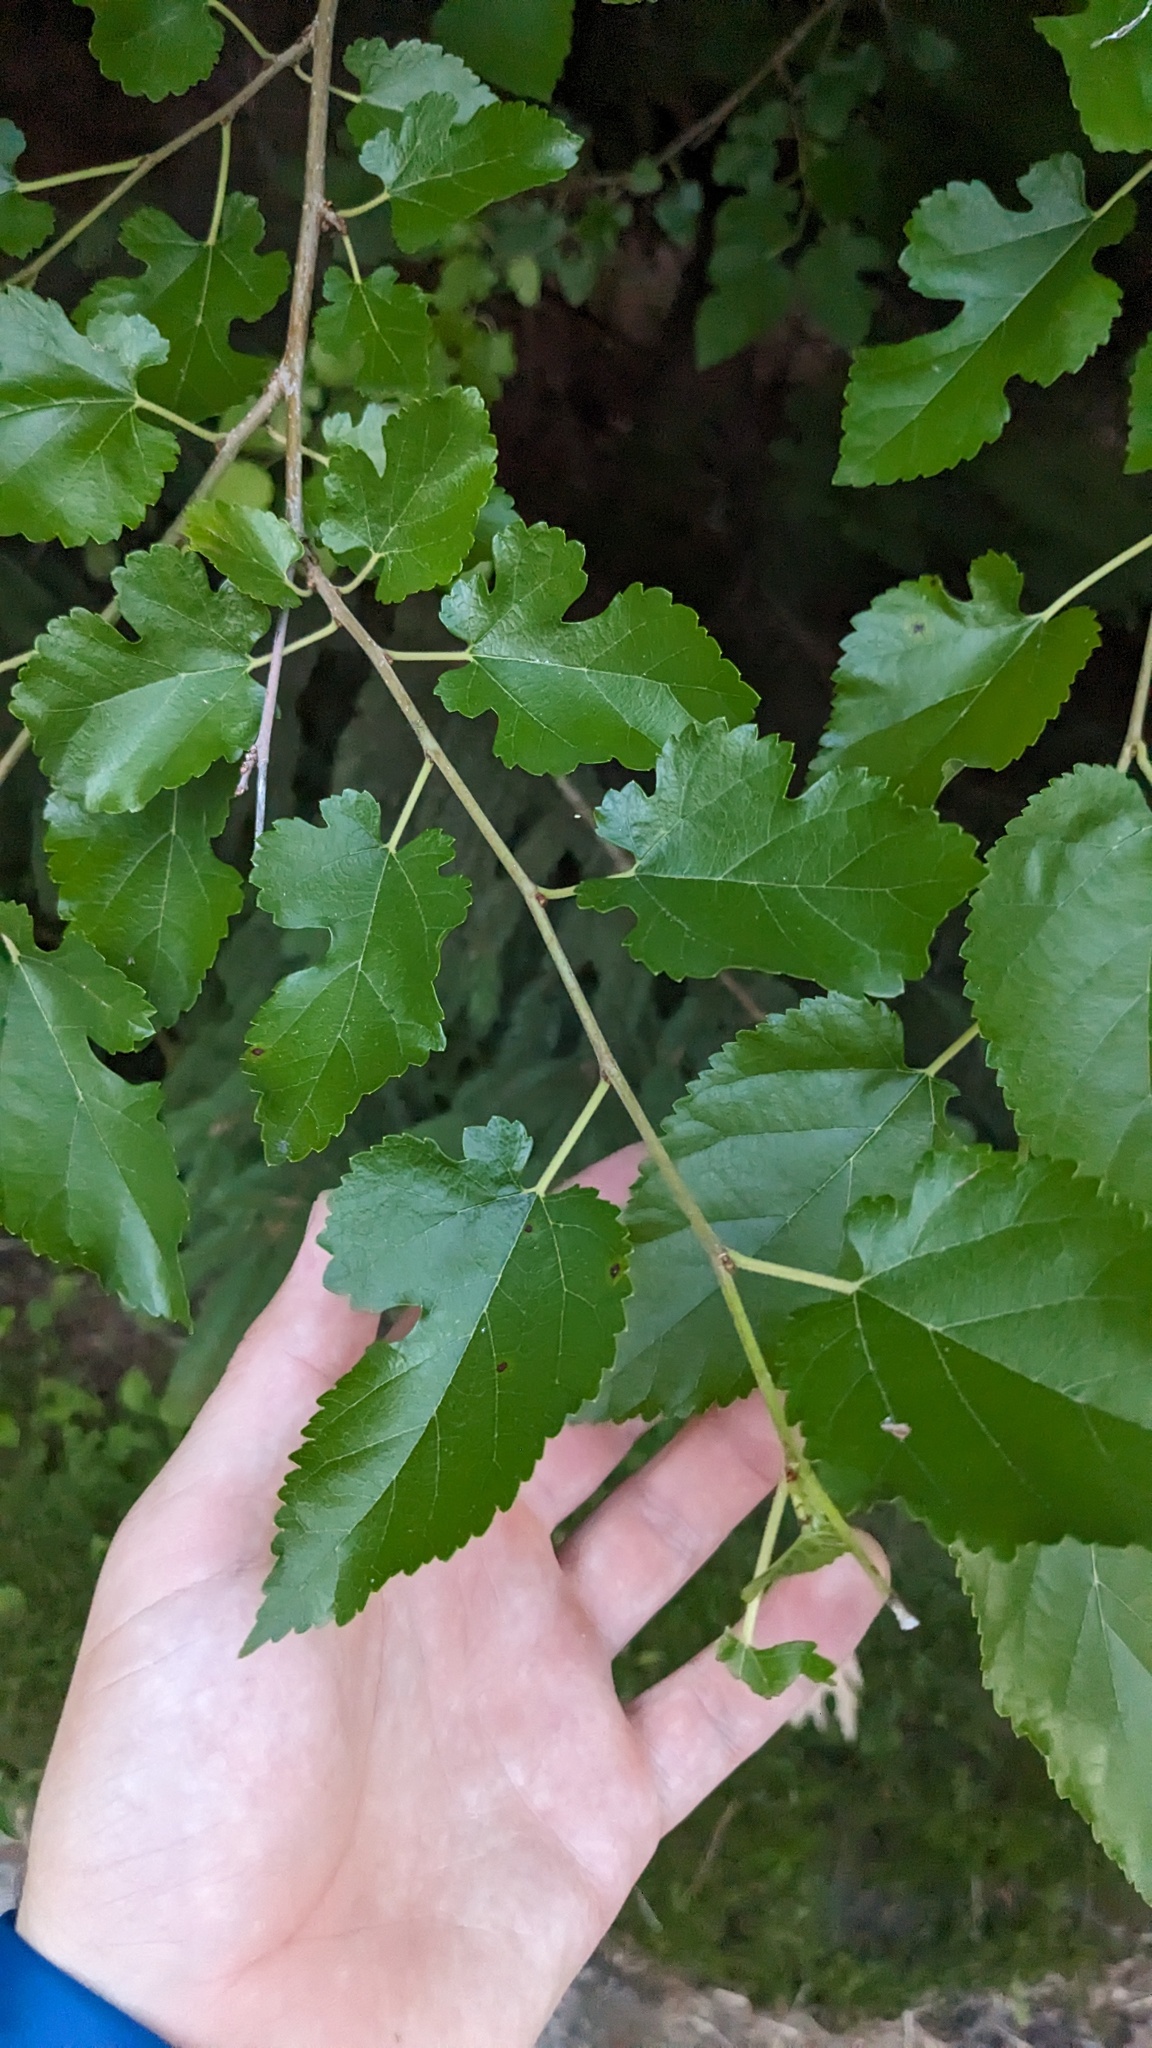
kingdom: Plantae
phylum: Tracheophyta
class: Magnoliopsida
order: Rosales
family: Moraceae
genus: Morus
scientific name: Morus alba
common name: White mulberry
